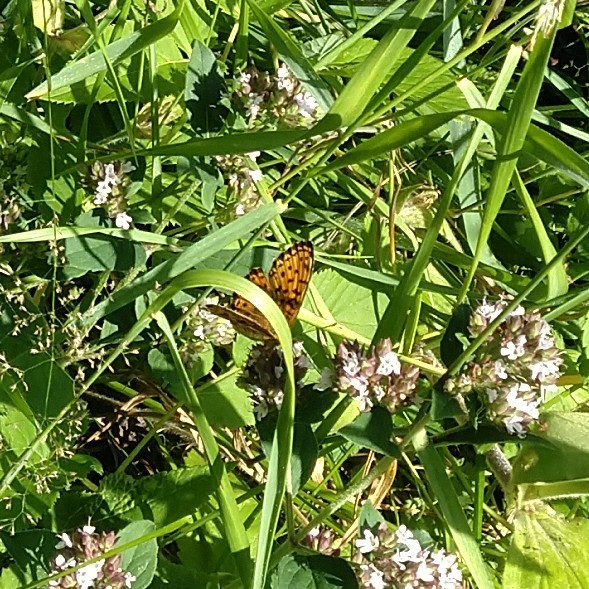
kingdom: Animalia
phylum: Arthropoda
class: Insecta
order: Lepidoptera
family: Nymphalidae
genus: Brenthis
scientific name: Brenthis ino
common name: Lesser marbled fritillary
